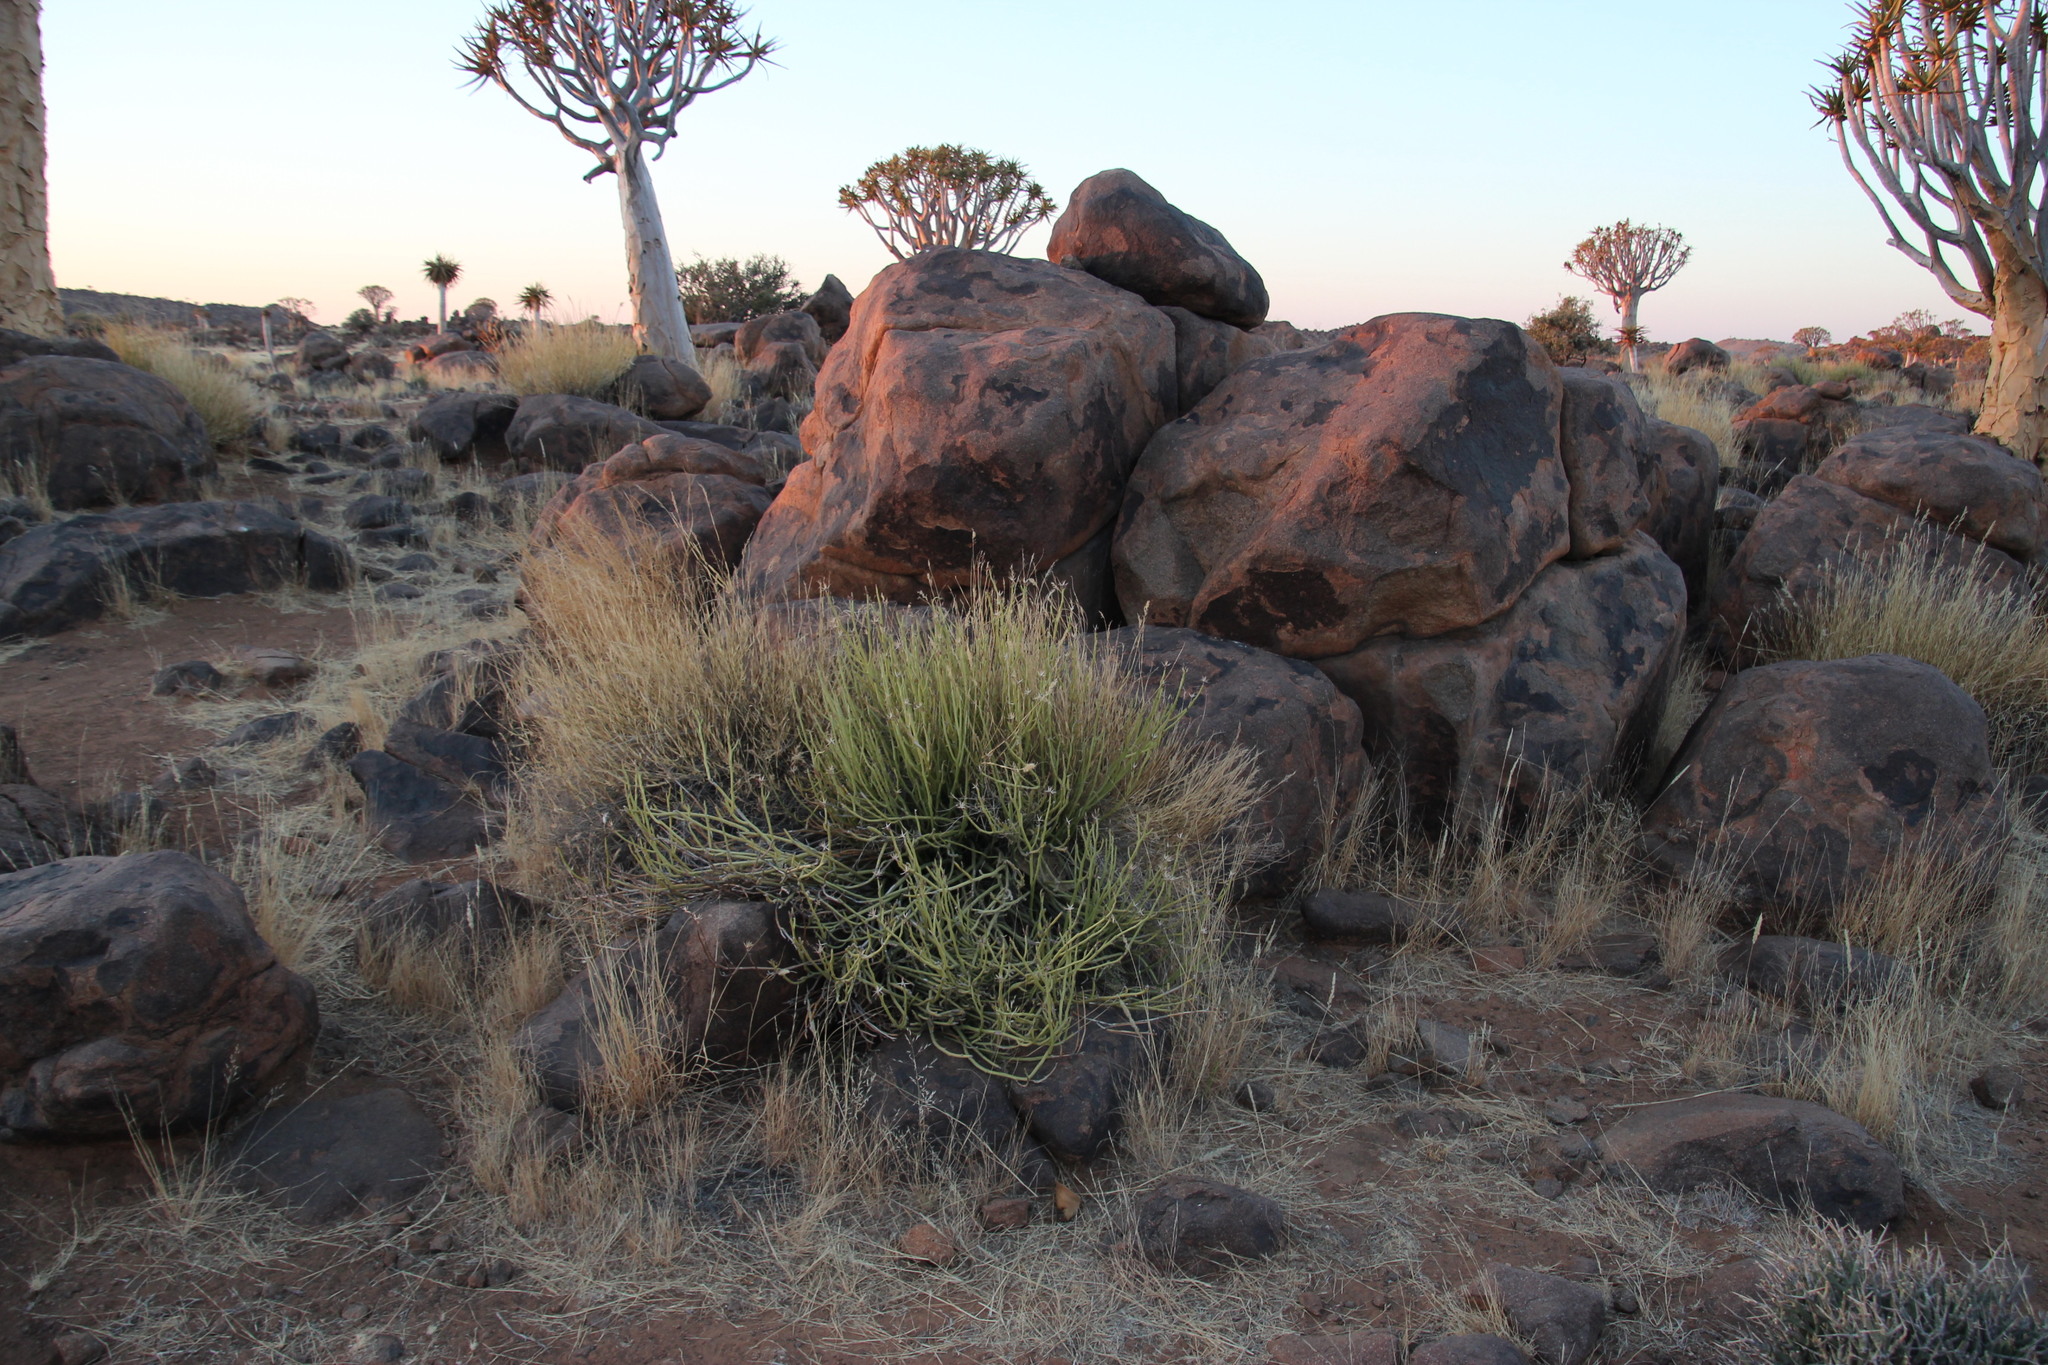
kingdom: Plantae
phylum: Tracheophyta
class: Magnoliopsida
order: Asterales
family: Asteraceae
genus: Curio
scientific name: Curio avasimontanus
